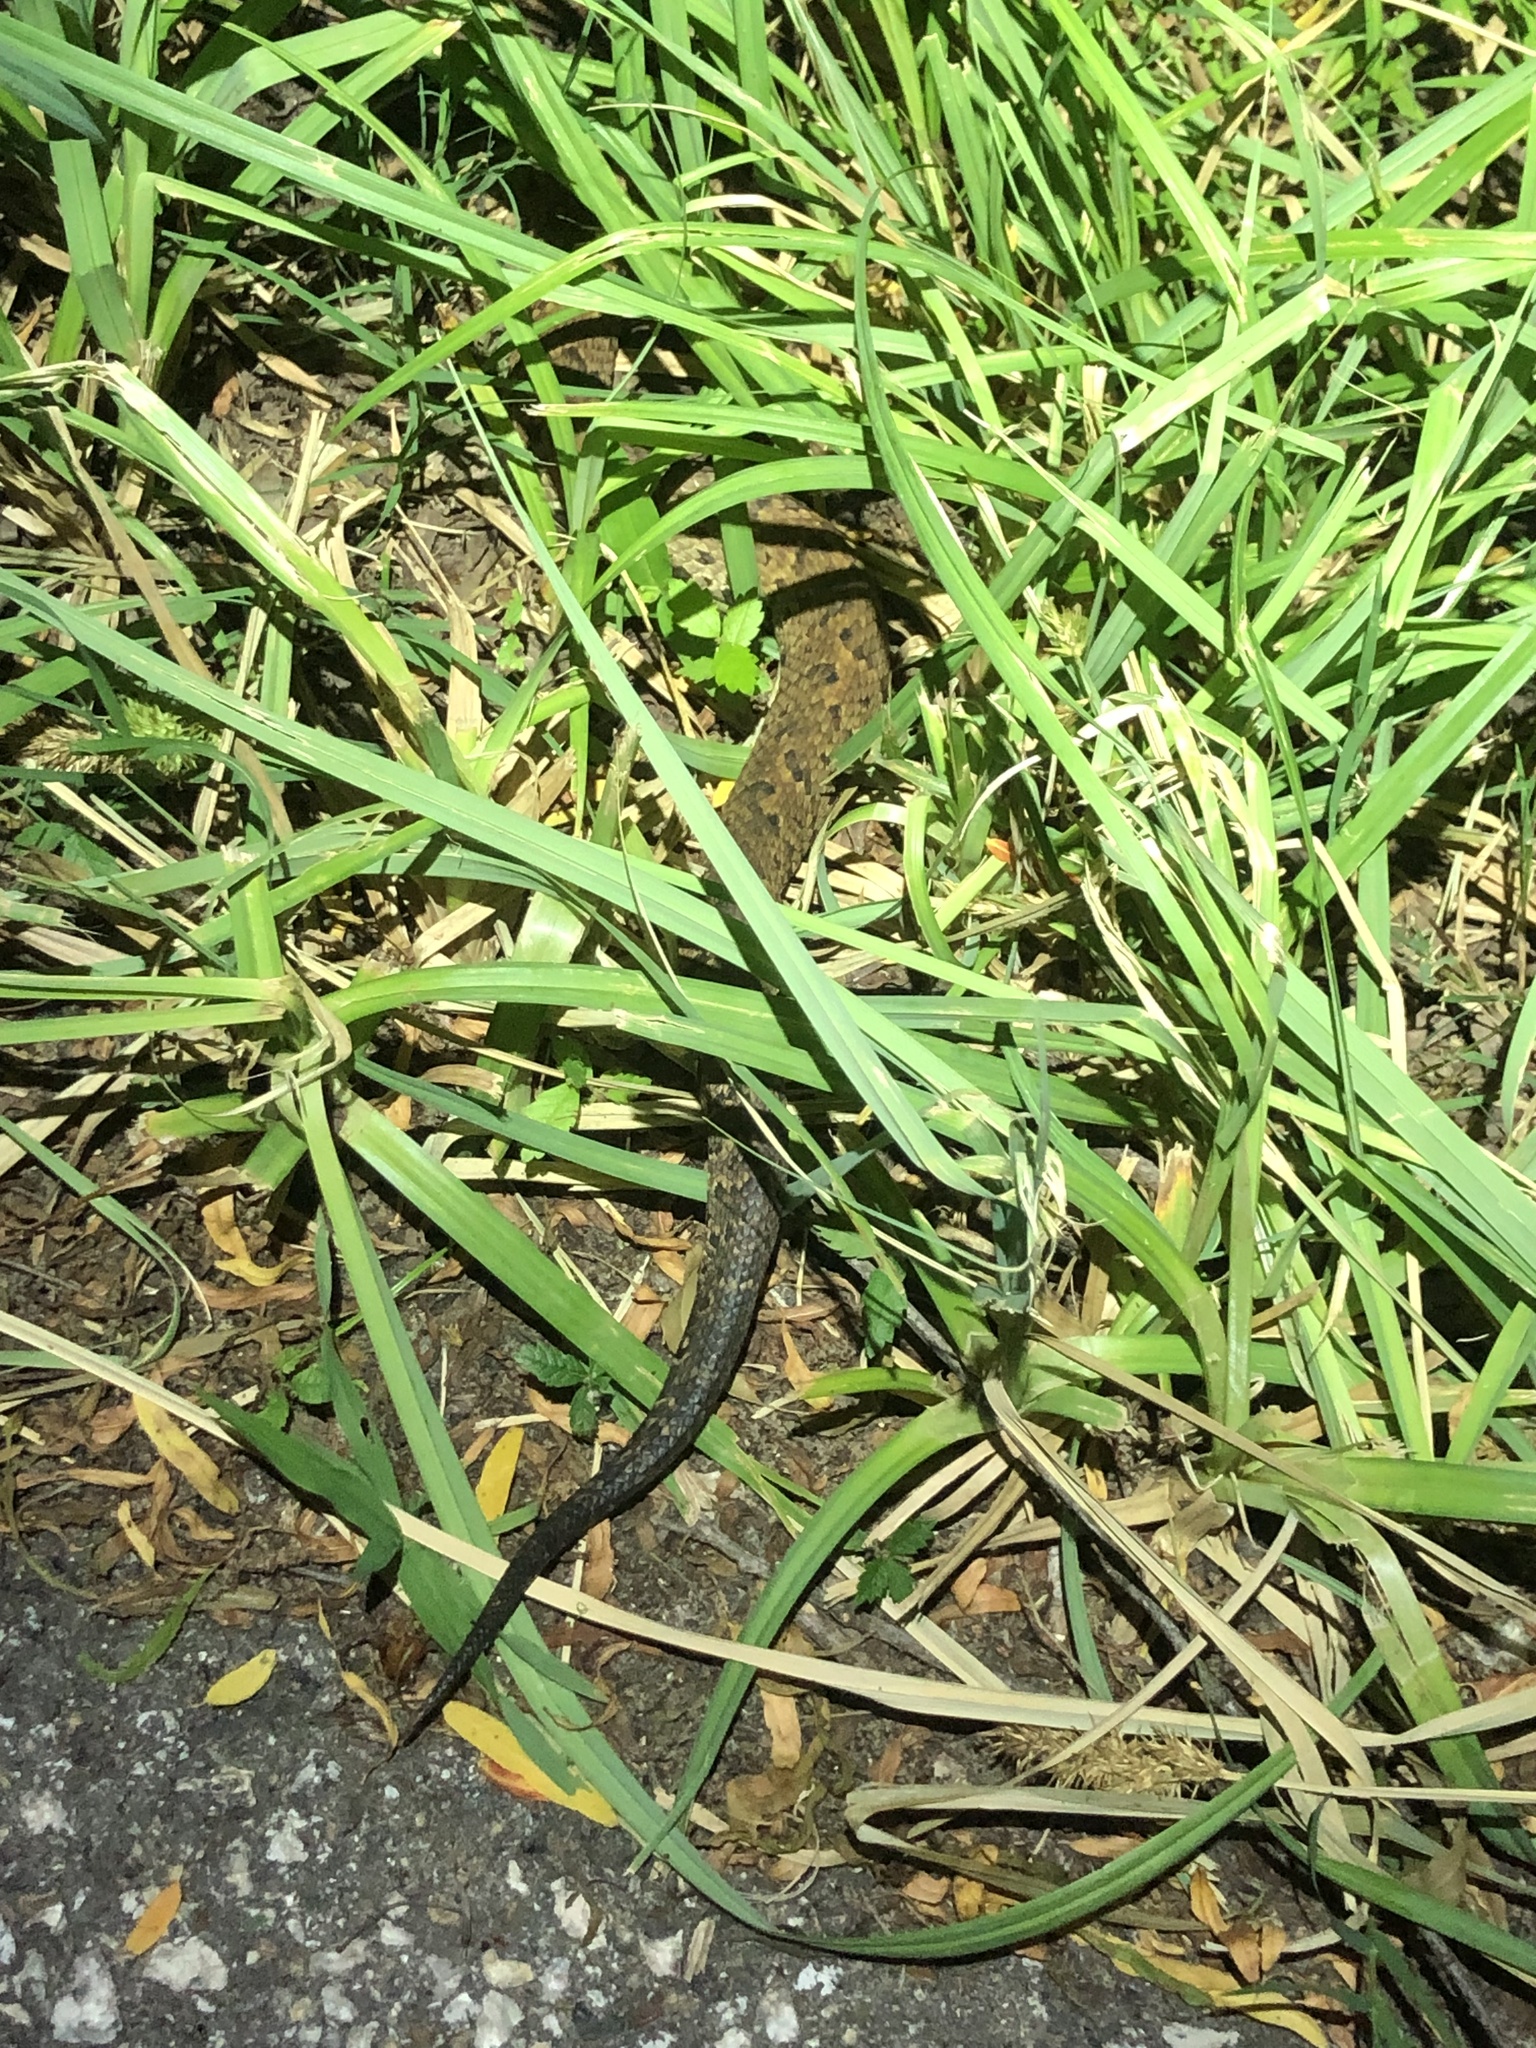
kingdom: Animalia
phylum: Chordata
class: Squamata
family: Viperidae
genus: Agkistrodon
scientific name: Agkistrodon piscivorus
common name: Cottonmouth
